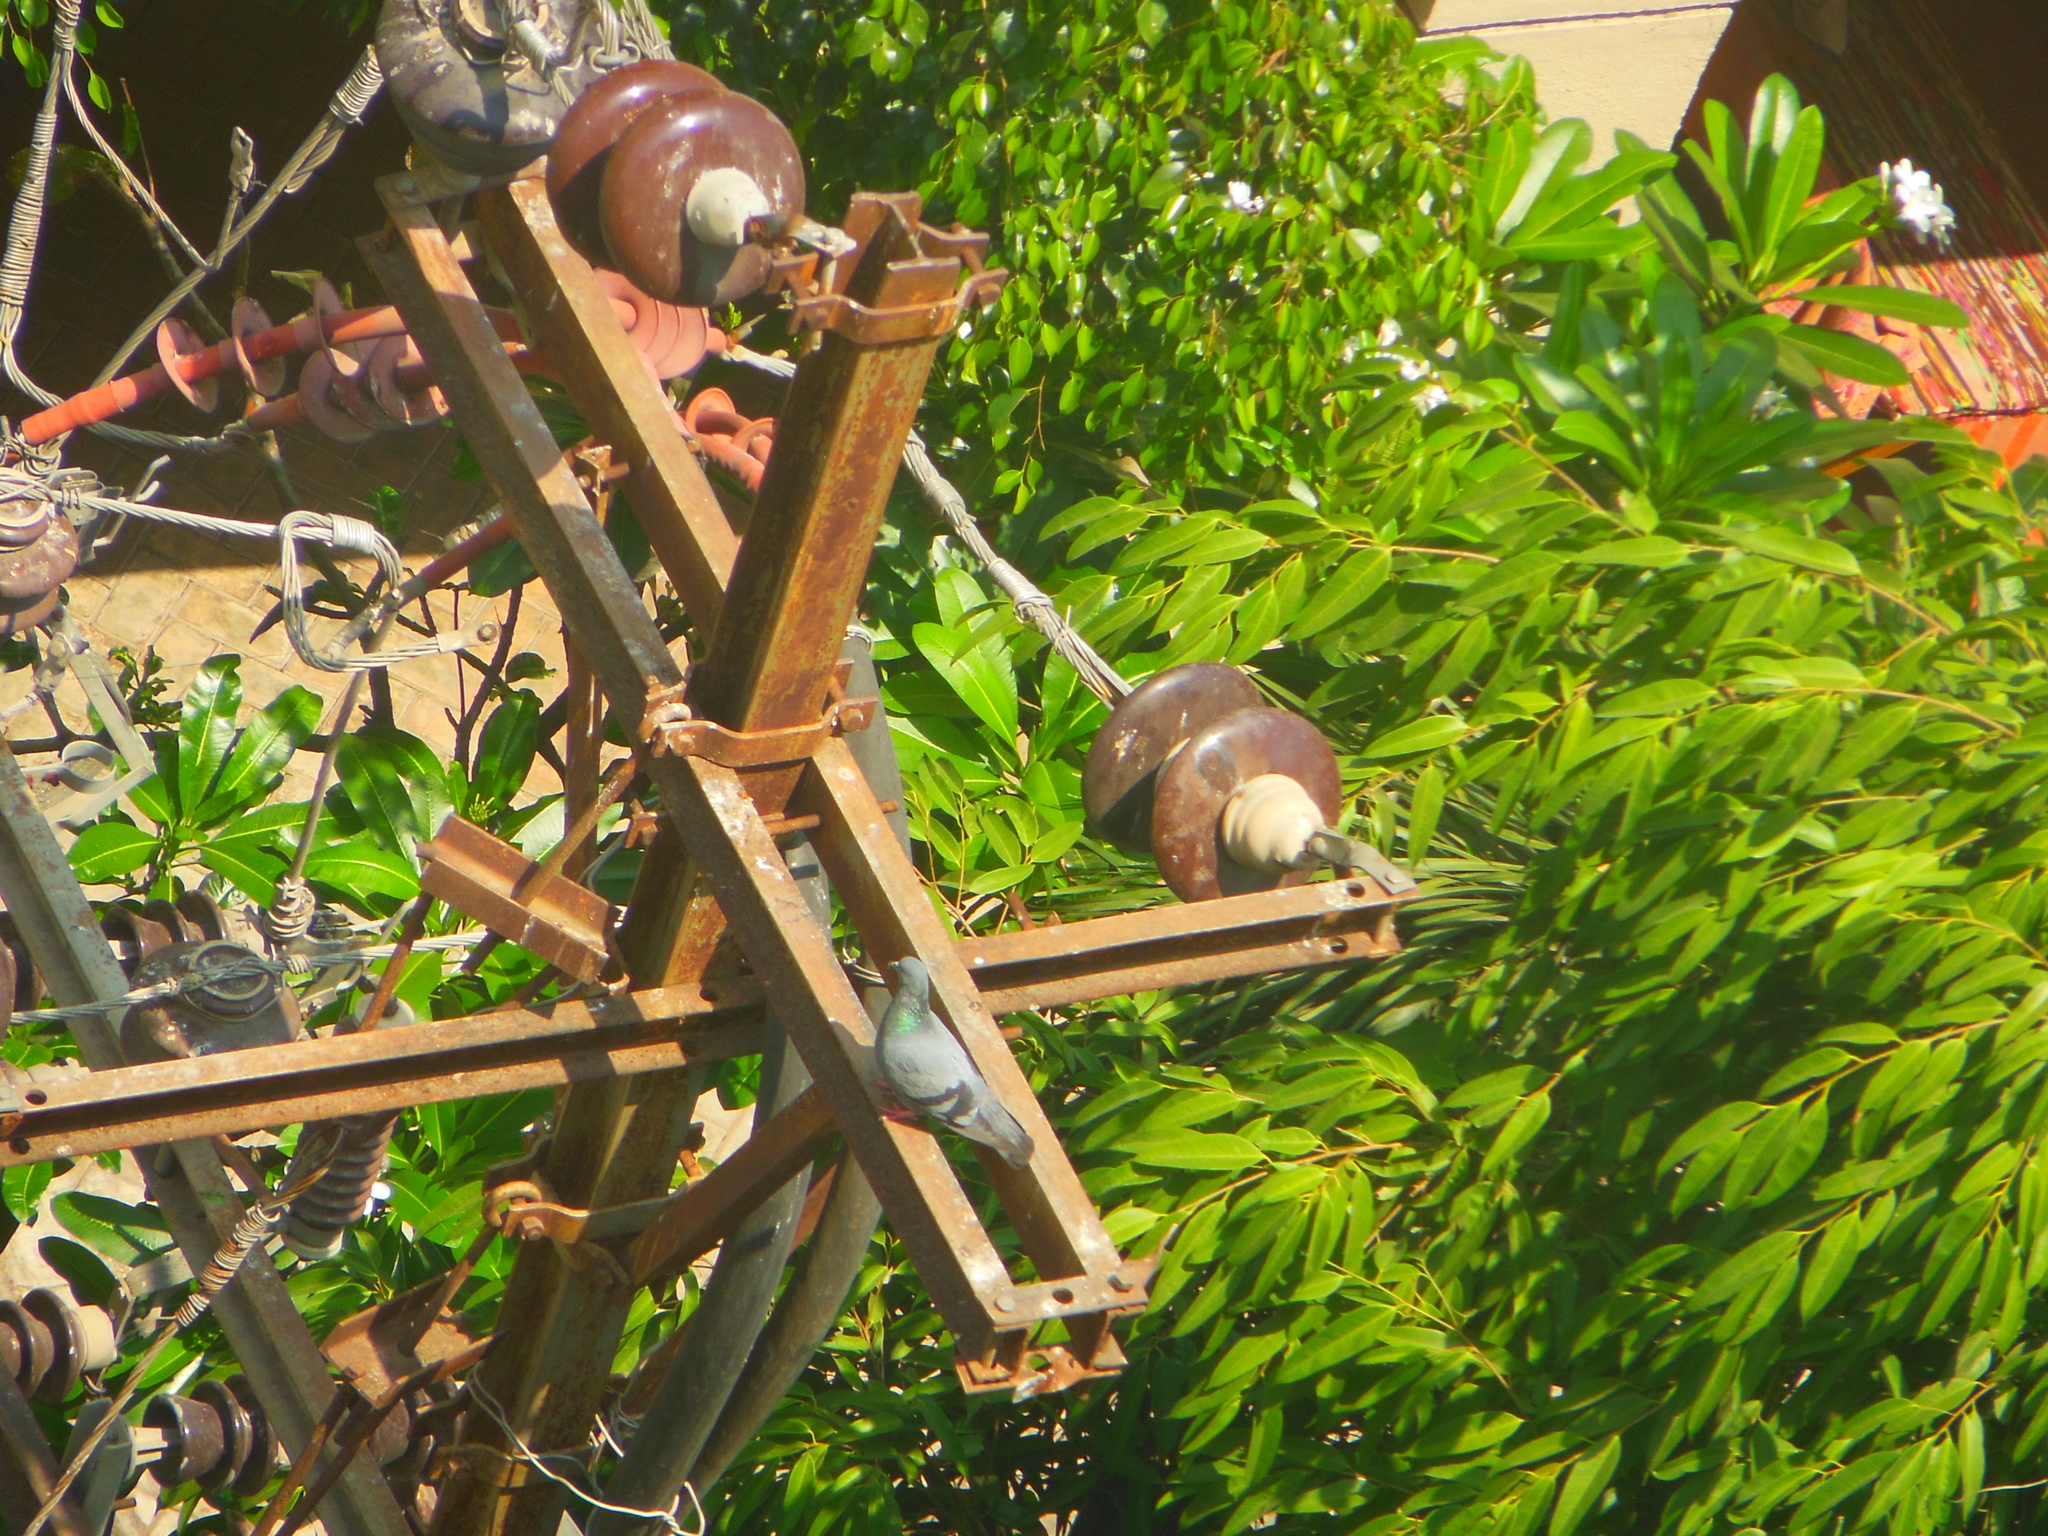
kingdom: Animalia
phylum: Chordata
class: Aves
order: Columbiformes
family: Columbidae
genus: Columba
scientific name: Columba livia
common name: Rock pigeon
